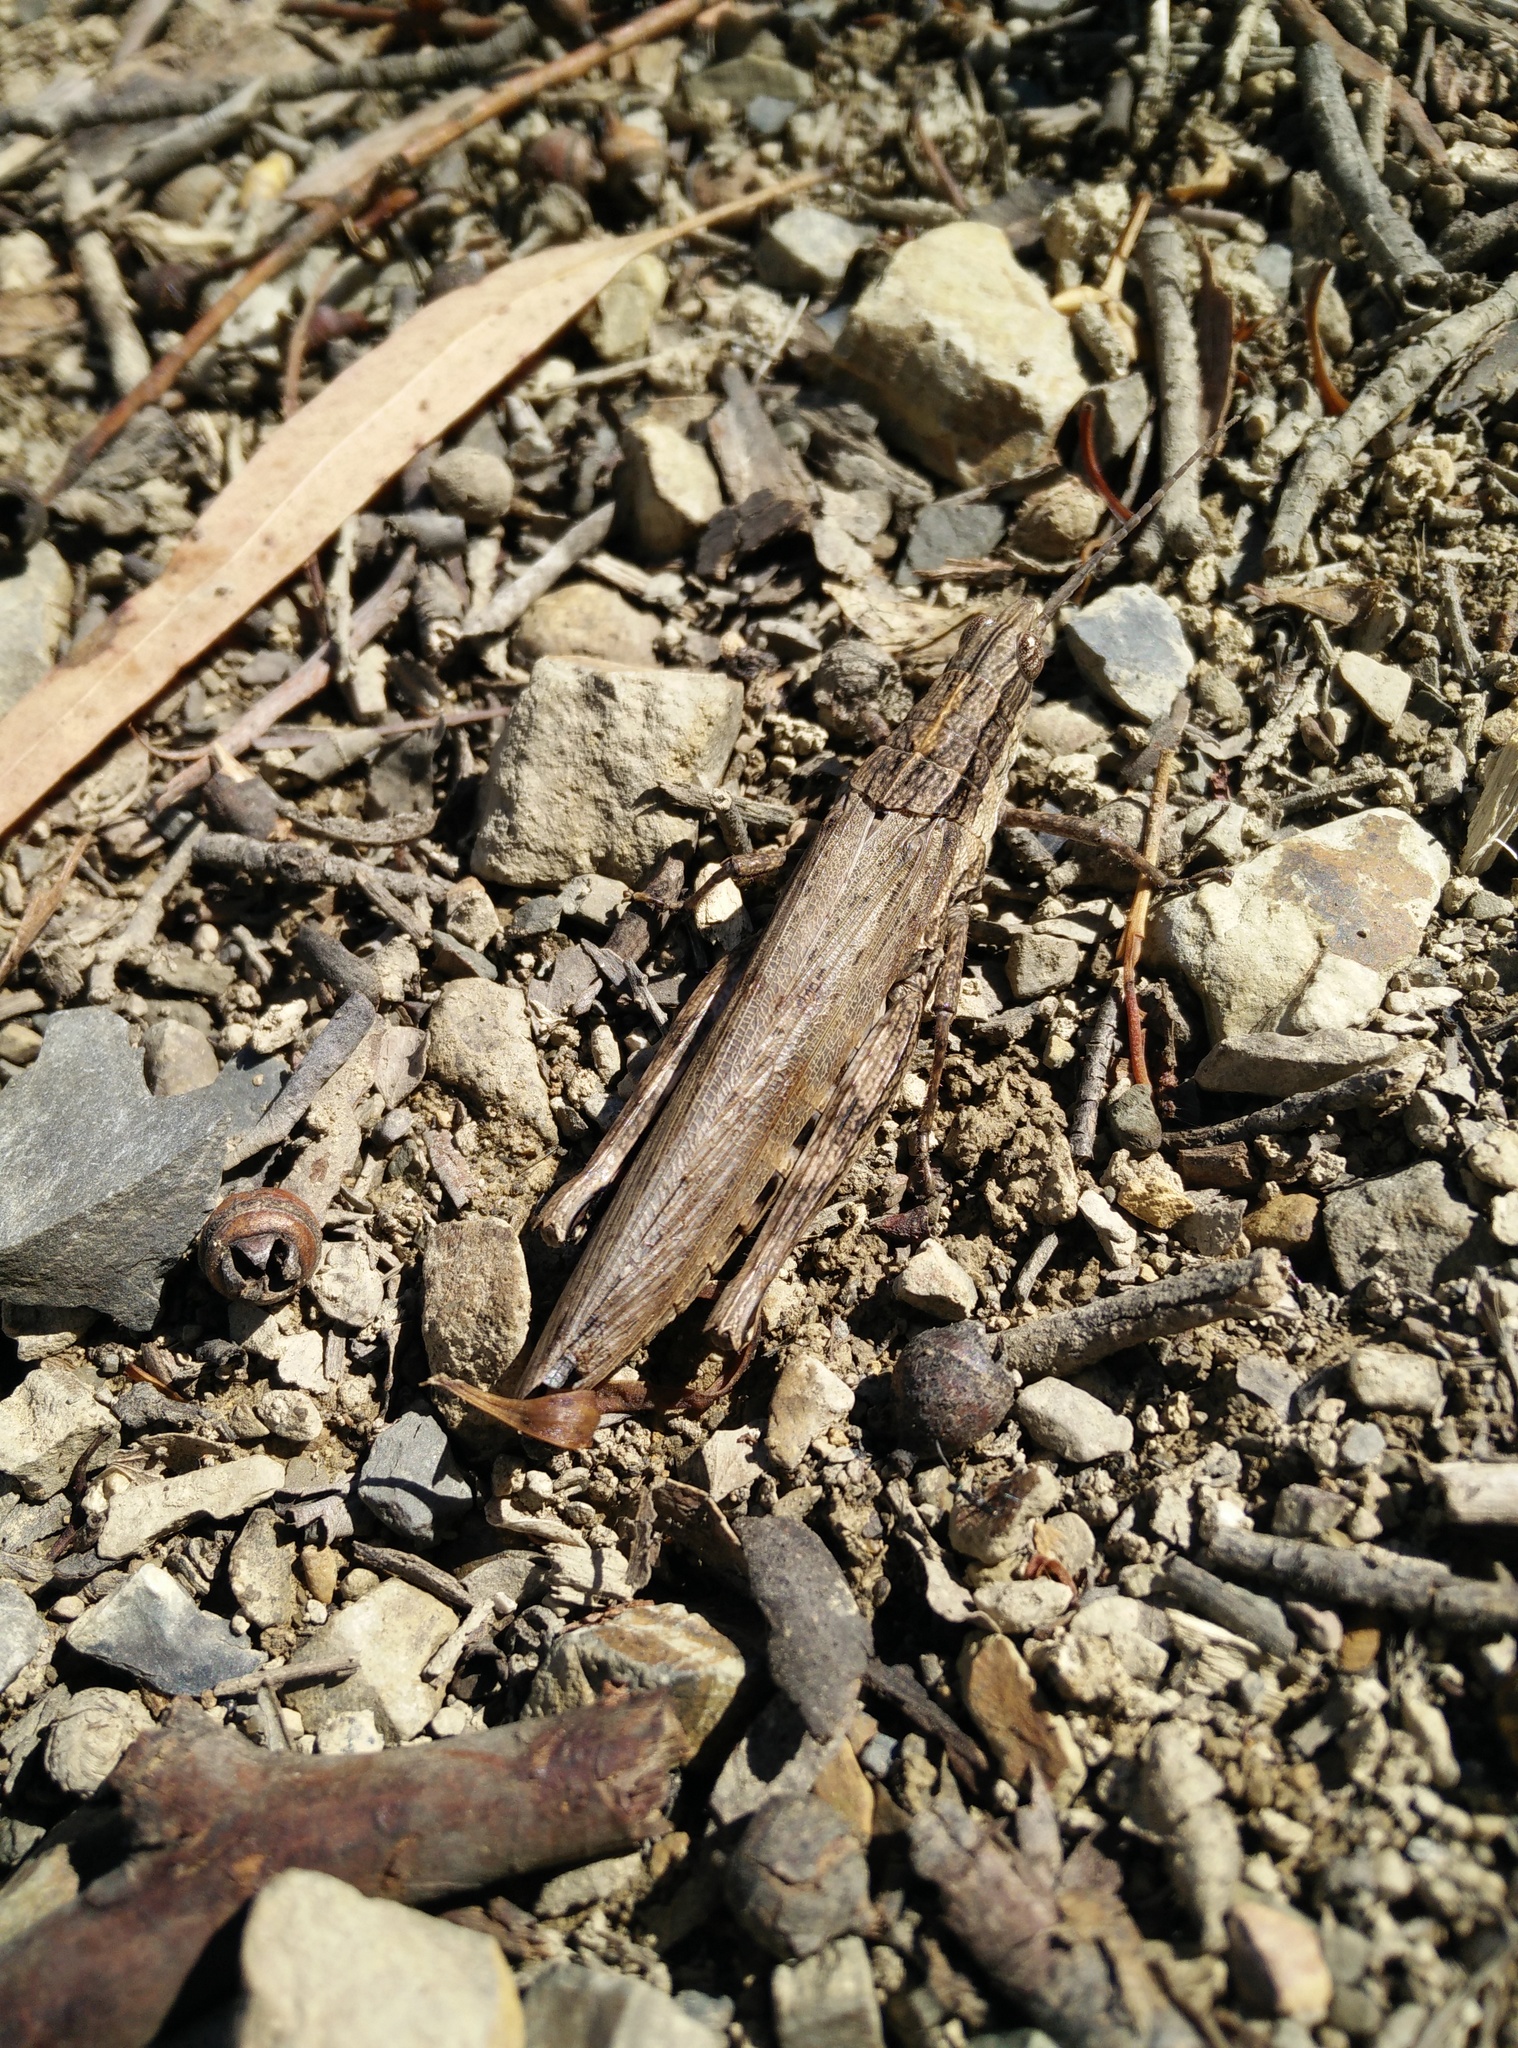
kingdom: Animalia
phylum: Arthropoda
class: Insecta
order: Orthoptera
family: Acrididae
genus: Coryphistes
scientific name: Coryphistes ruricola
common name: Bark-mimicking grasshopper
